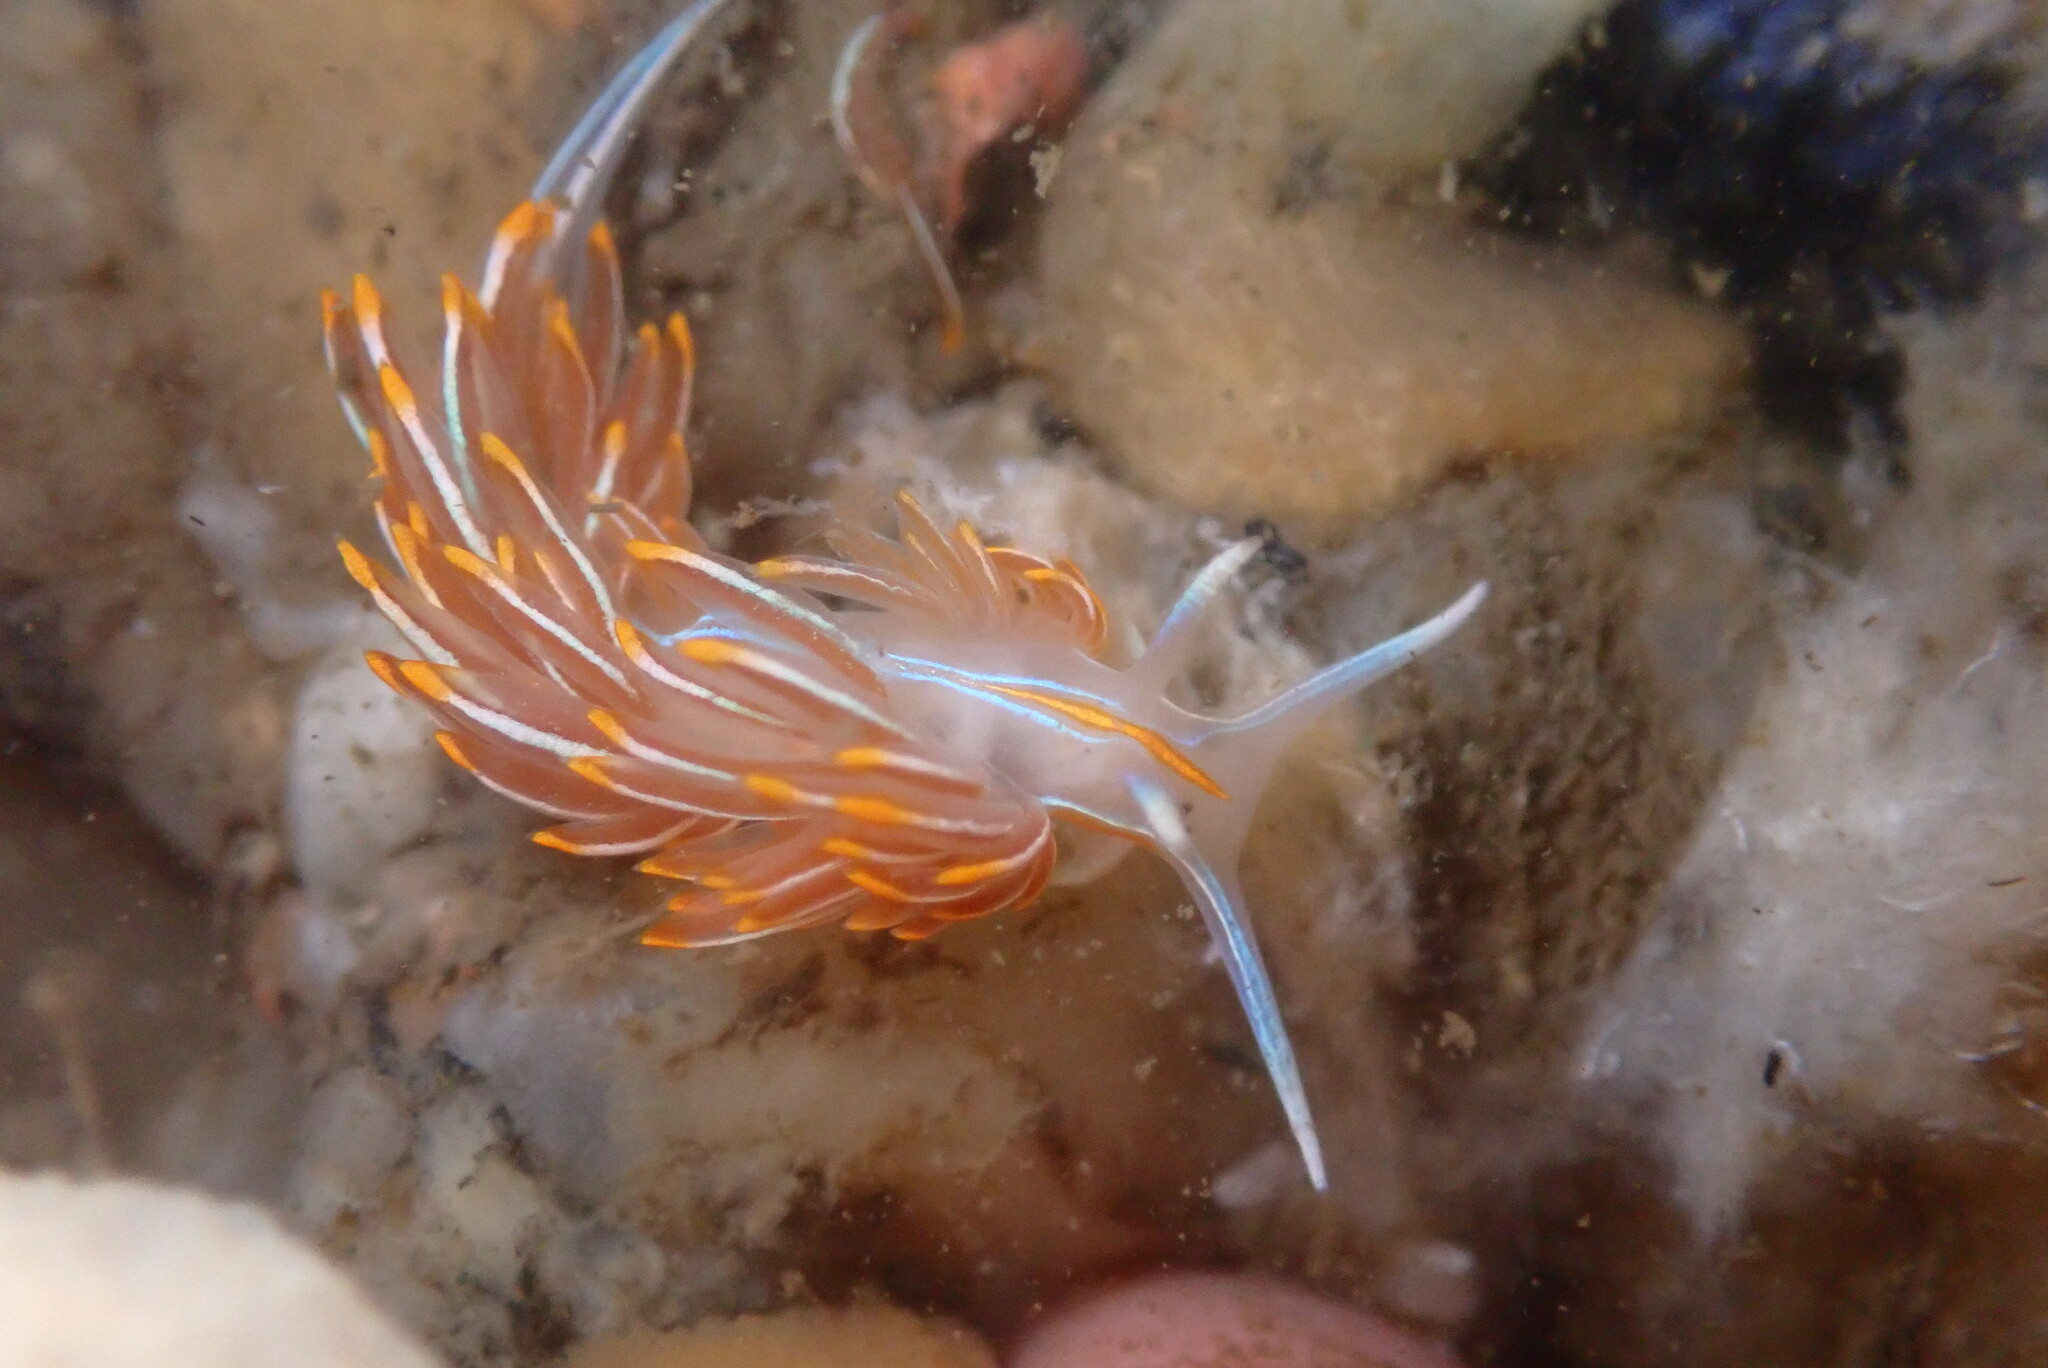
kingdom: Animalia
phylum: Mollusca
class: Gastropoda
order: Nudibranchia
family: Myrrhinidae
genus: Hermissenda
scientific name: Hermissenda crassicornis
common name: Hermissenda
